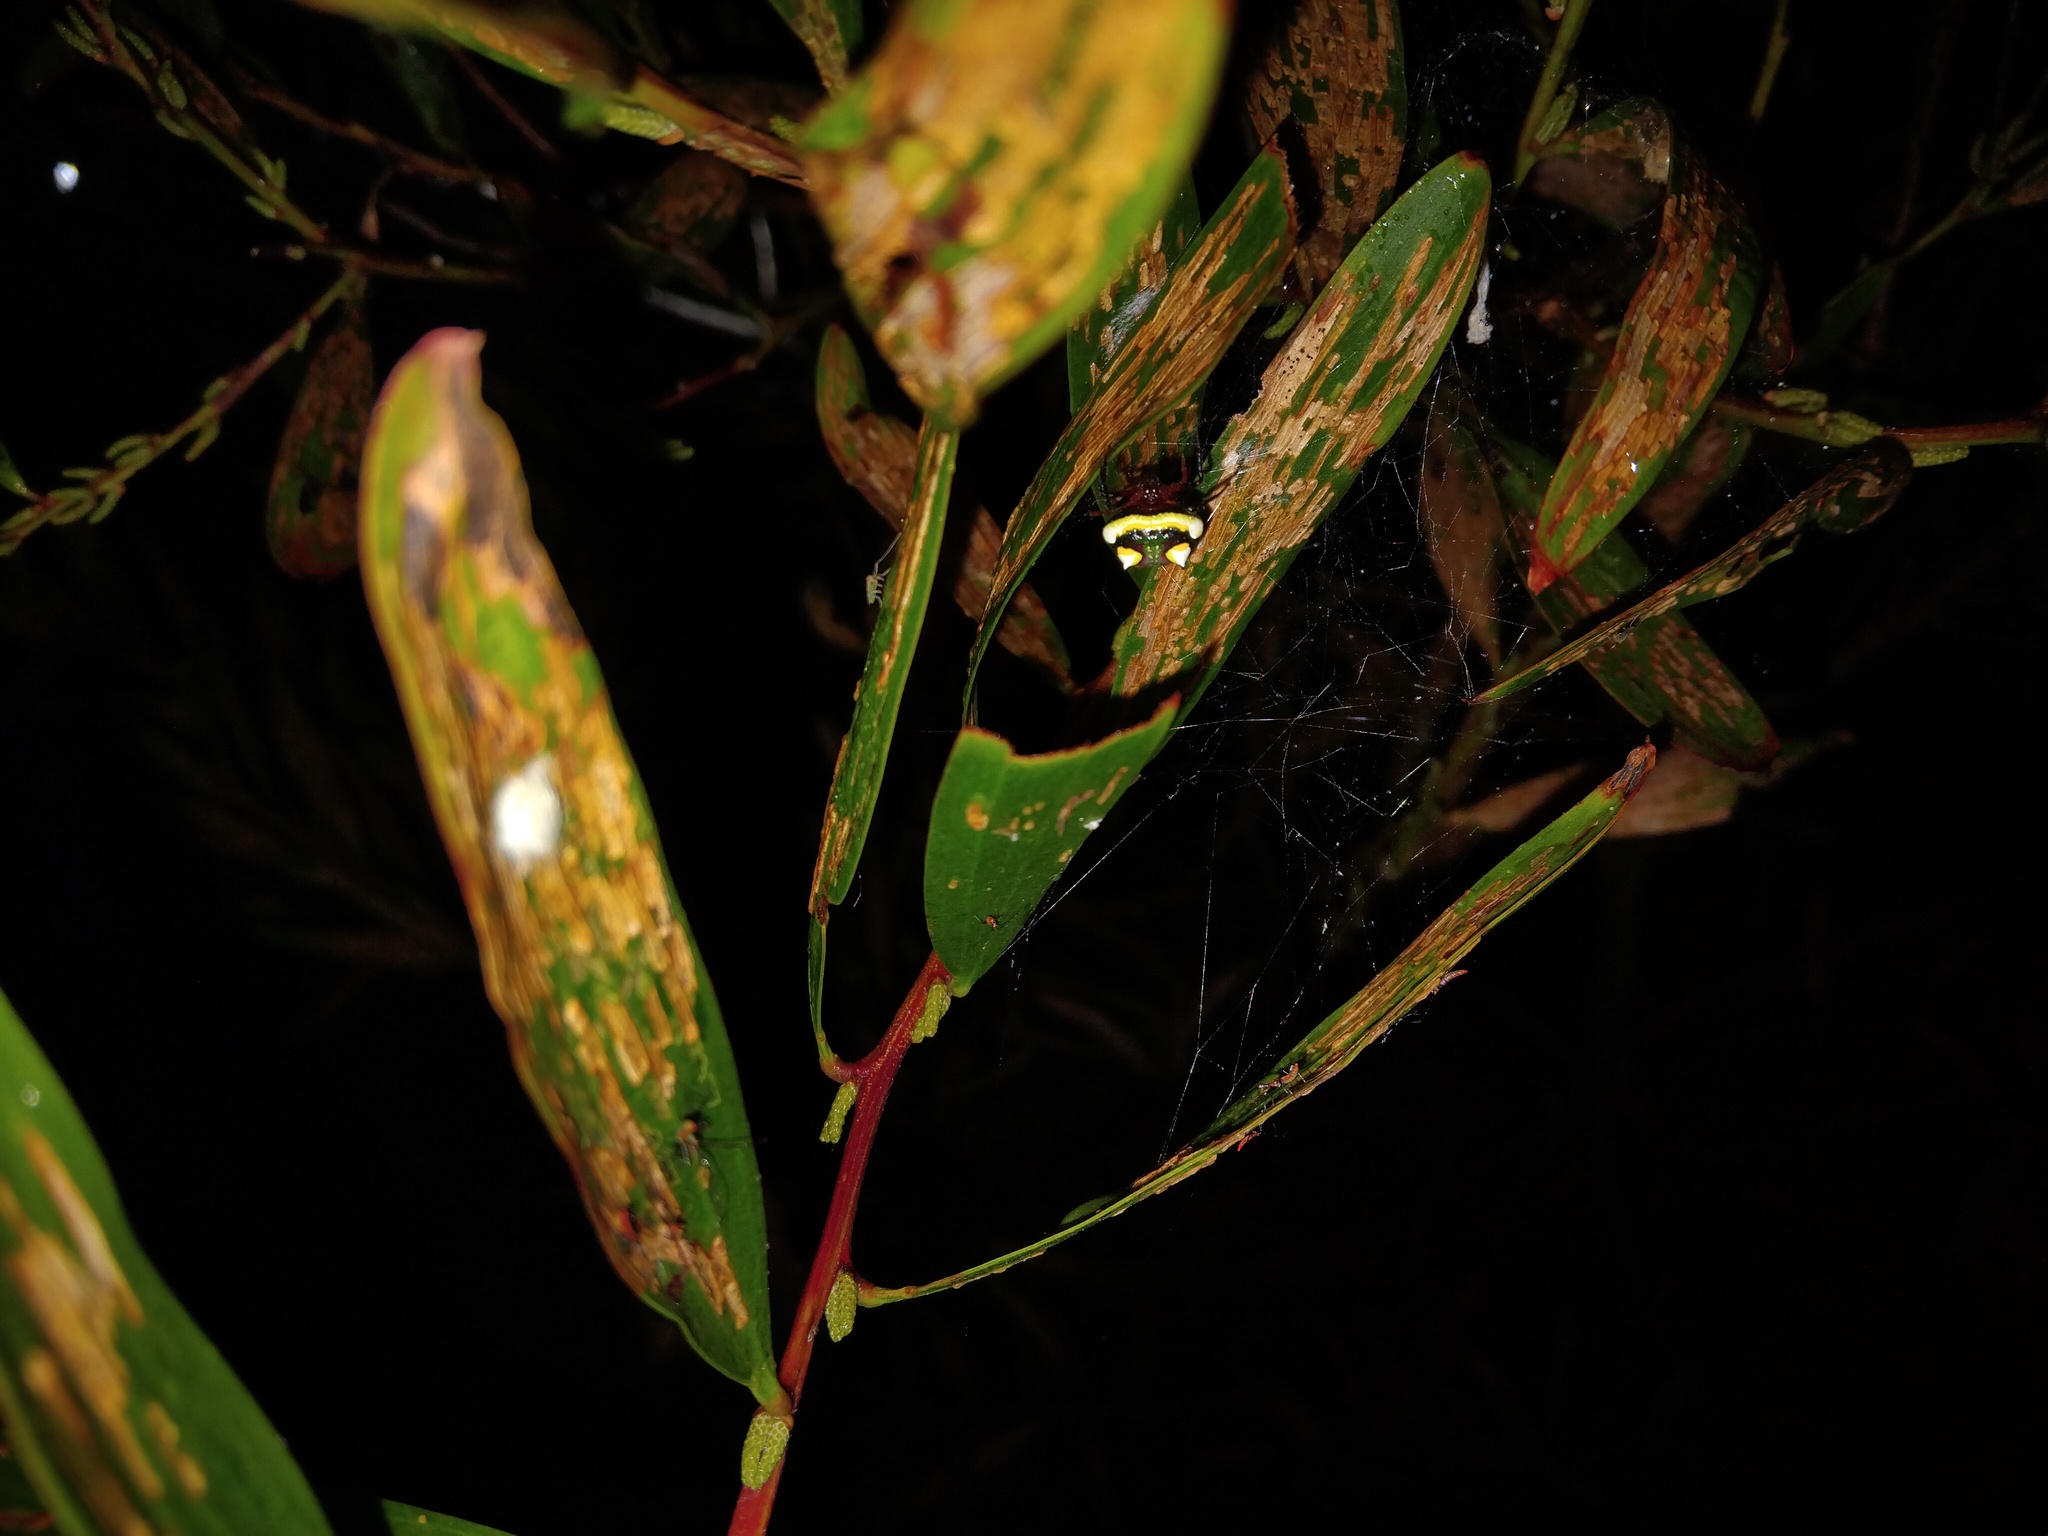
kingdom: Animalia
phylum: Arthropoda
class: Arachnida
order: Araneae
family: Araneidae
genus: Poecilopachys
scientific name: Poecilopachys australasia
